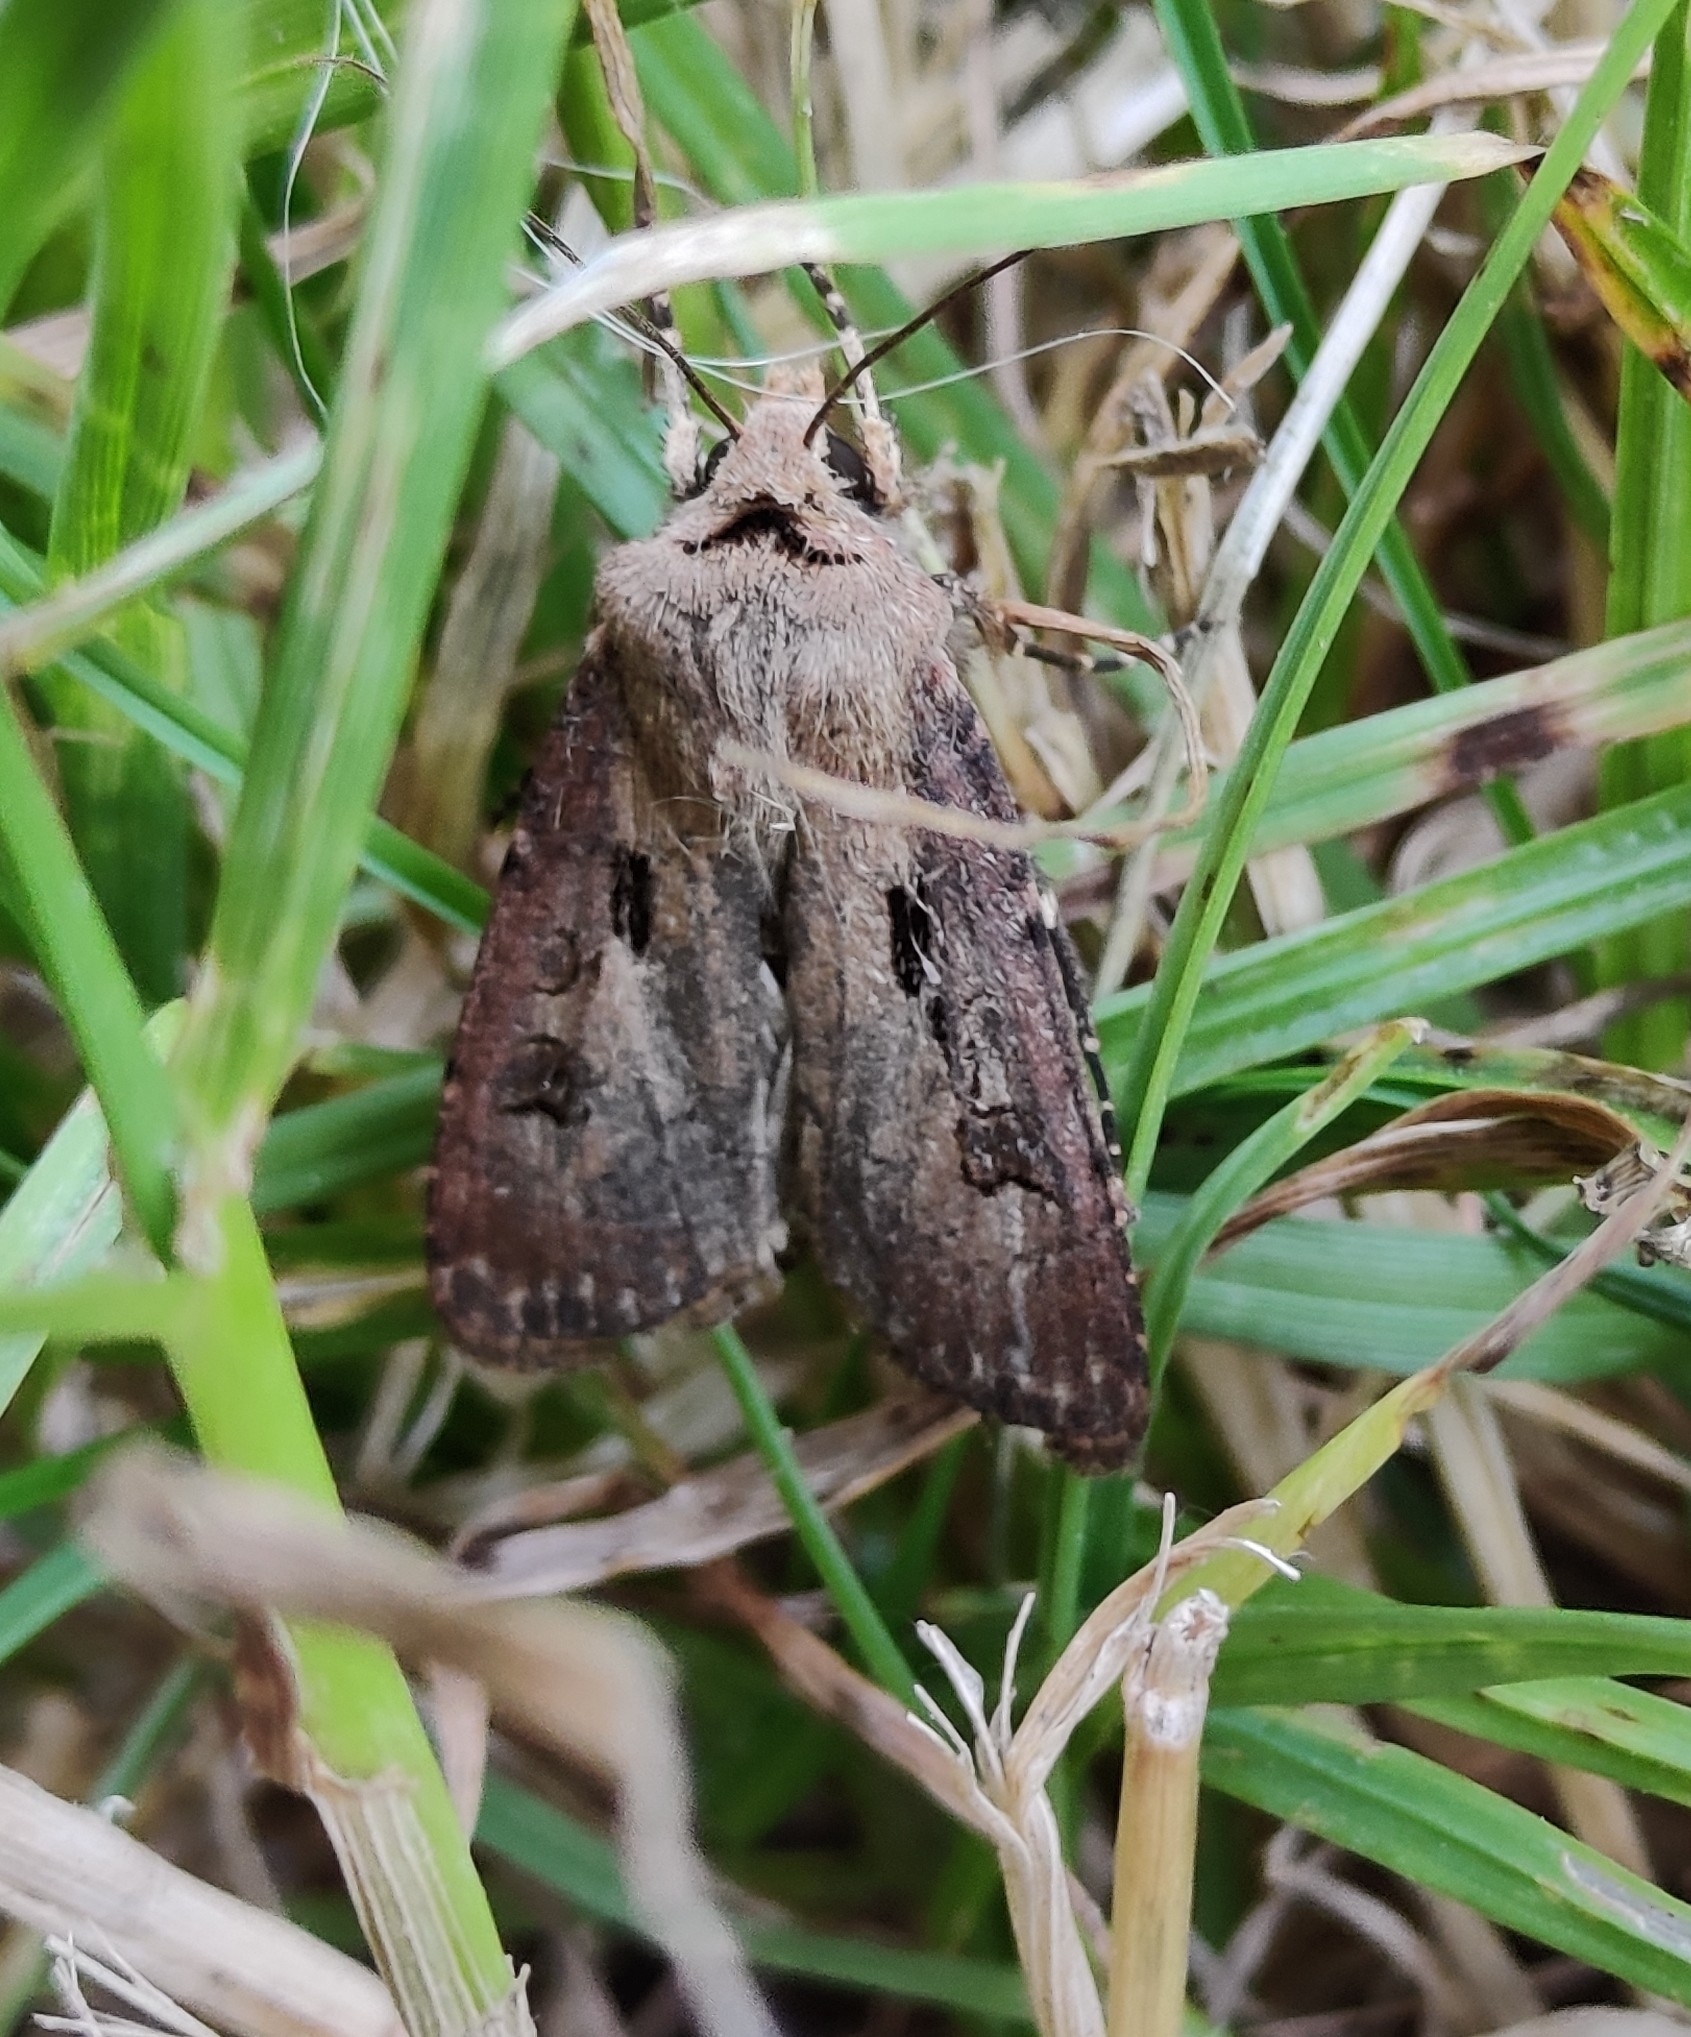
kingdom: Animalia
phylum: Arthropoda
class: Insecta
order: Lepidoptera
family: Noctuidae
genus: Agrotis
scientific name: Agrotis exclamationis
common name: Heart and dart
